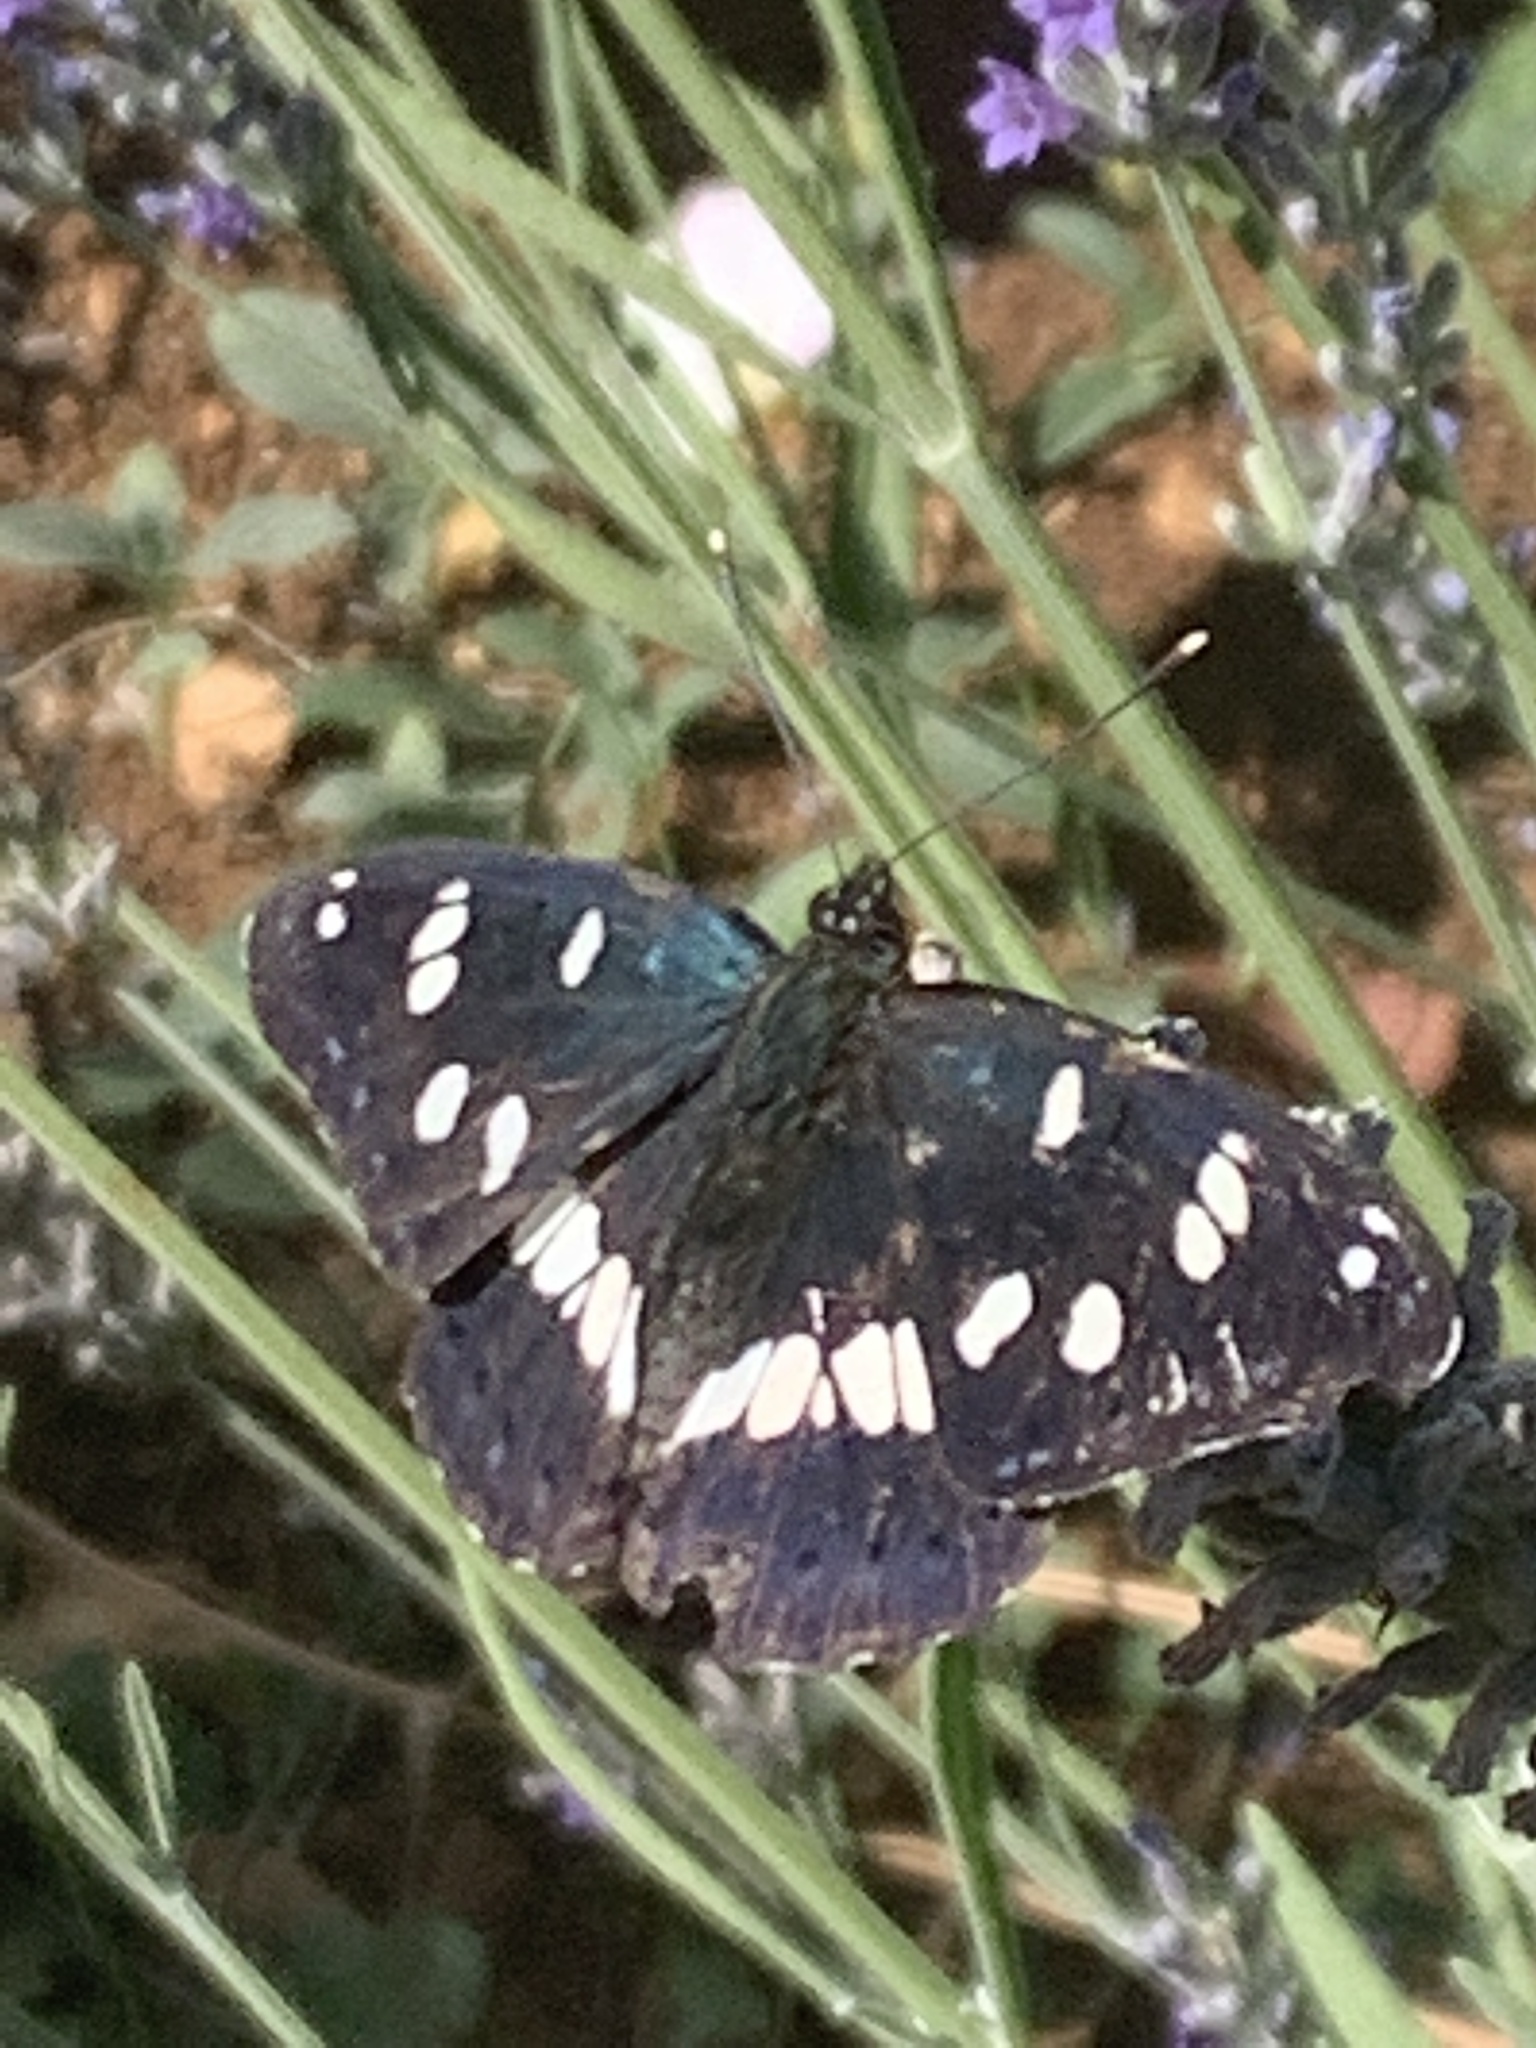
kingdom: Animalia
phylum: Arthropoda
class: Insecta
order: Lepidoptera
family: Nymphalidae
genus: Limenitis
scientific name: Limenitis reducta
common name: Southern white admiral
